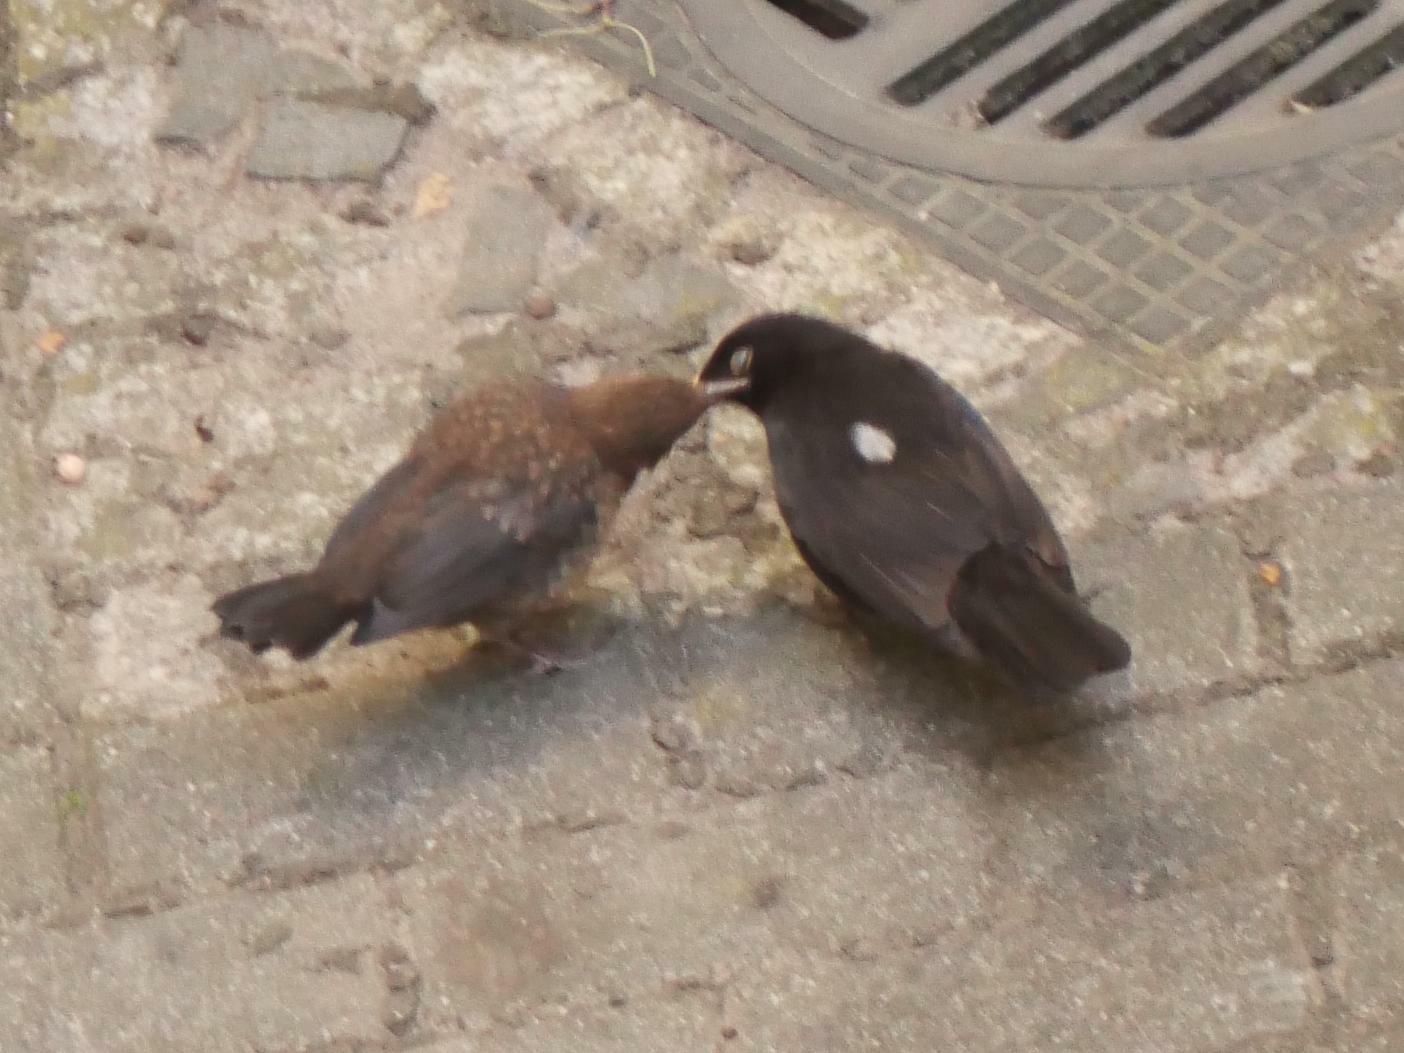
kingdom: Animalia
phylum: Chordata
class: Aves
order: Passeriformes
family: Turdidae
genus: Turdus
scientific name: Turdus merula
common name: Common blackbird
